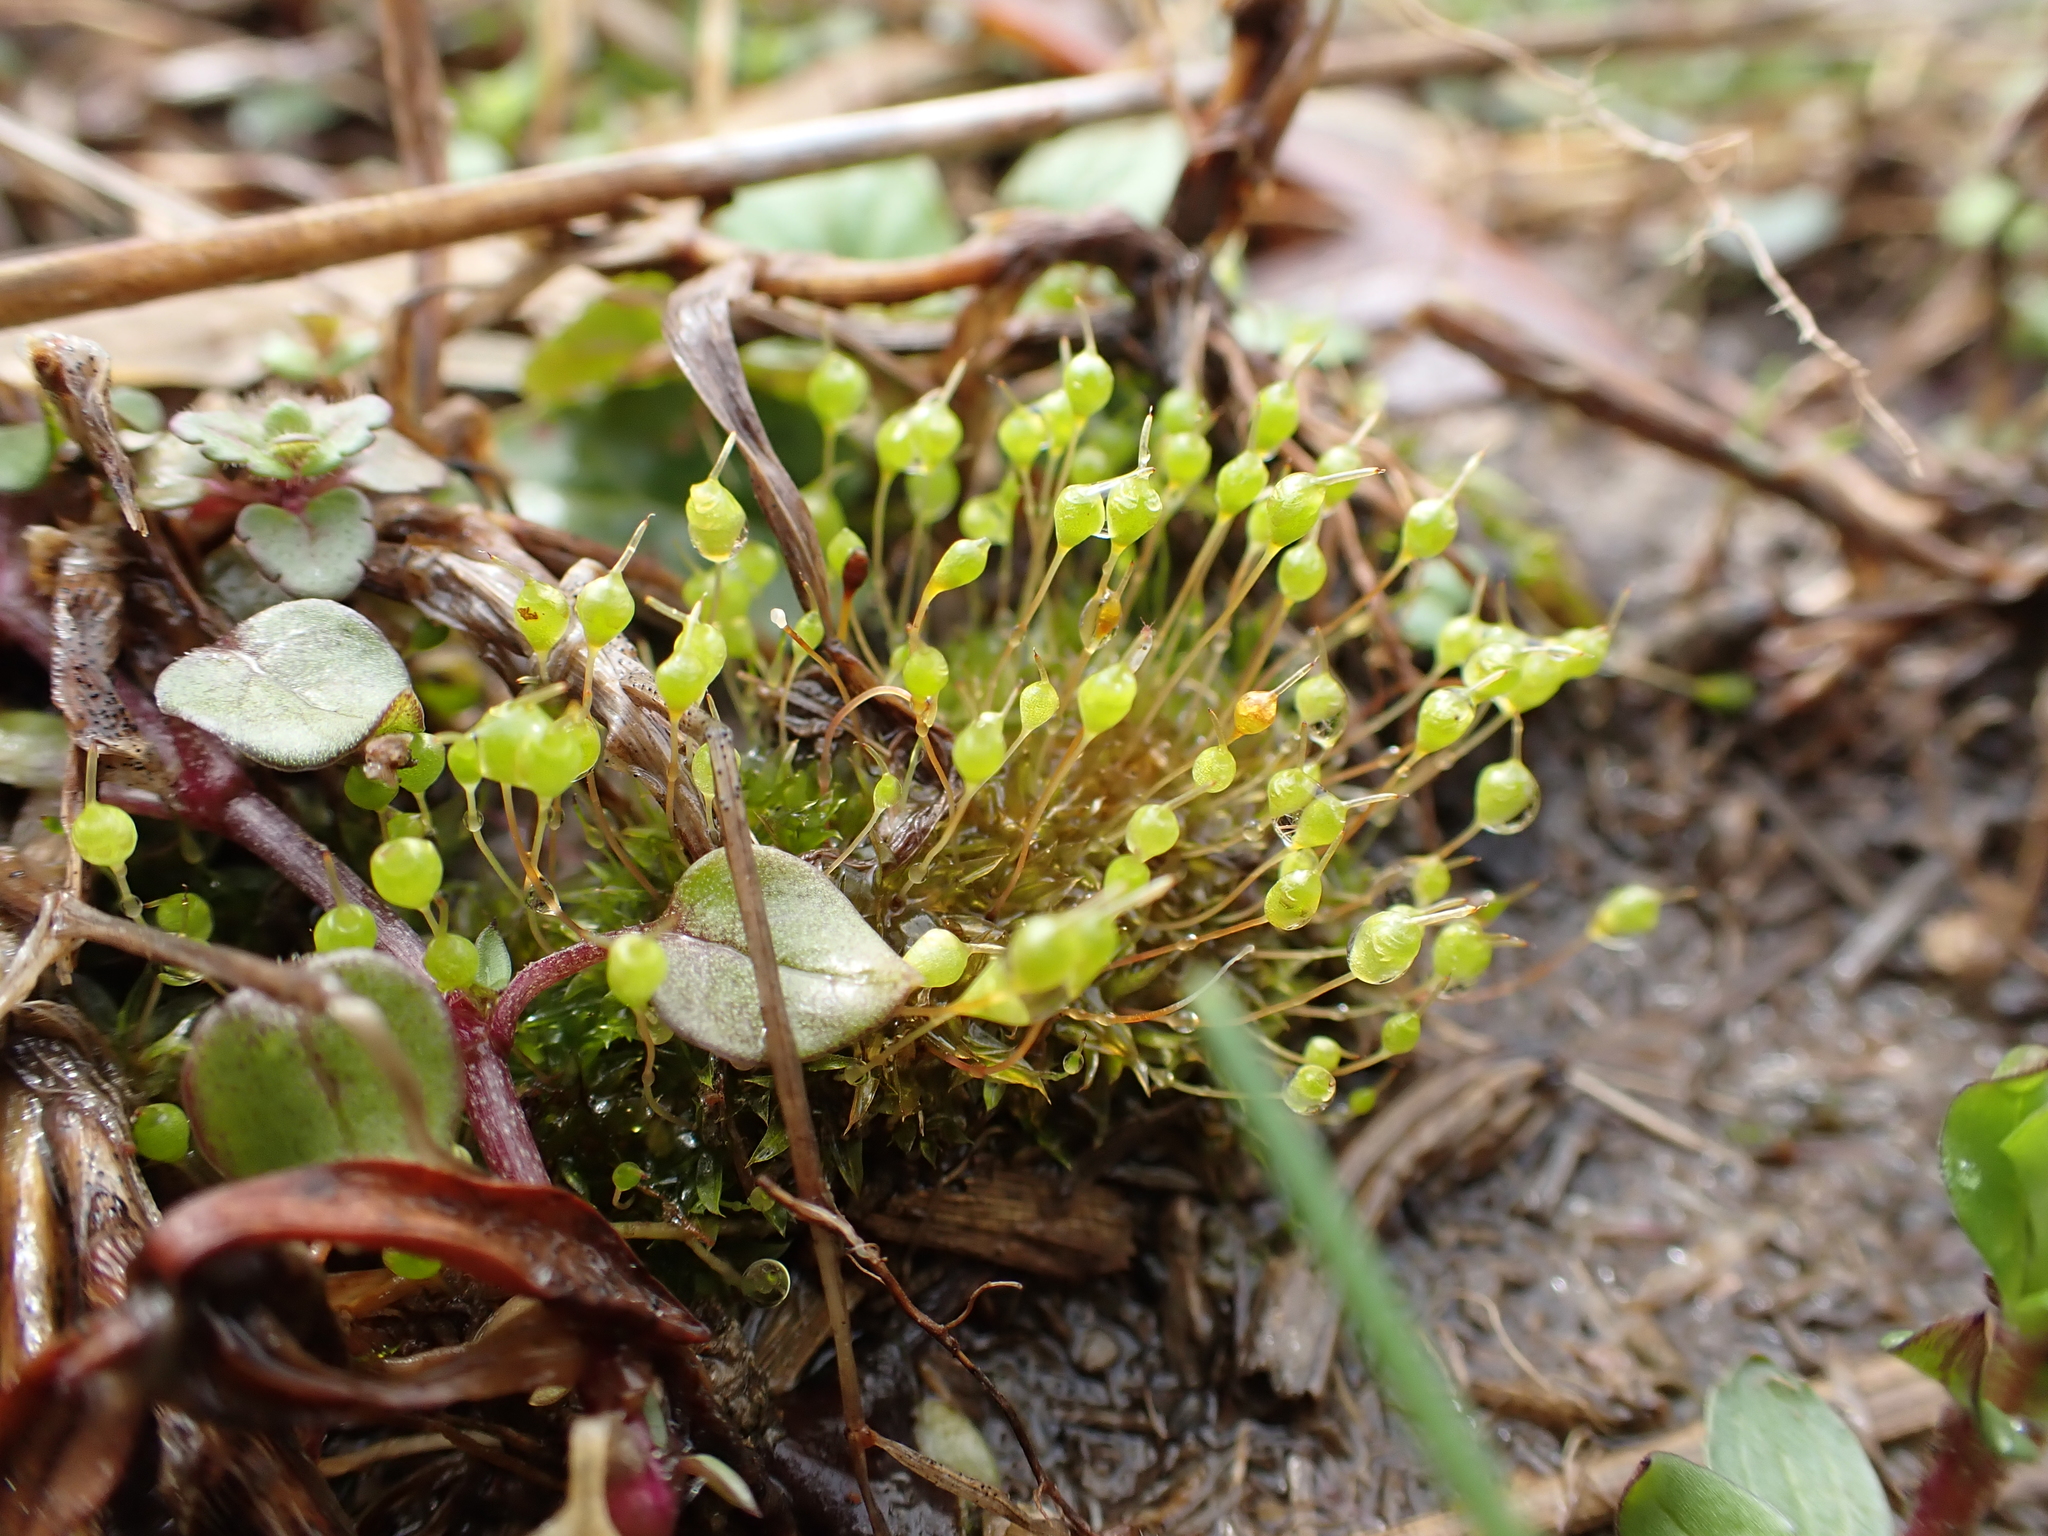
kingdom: Plantae
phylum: Bryophyta
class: Bryopsida
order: Funariales
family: Funariaceae
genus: Physcomitrium
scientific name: Physcomitrium pyriforme
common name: Common bladder-moss
